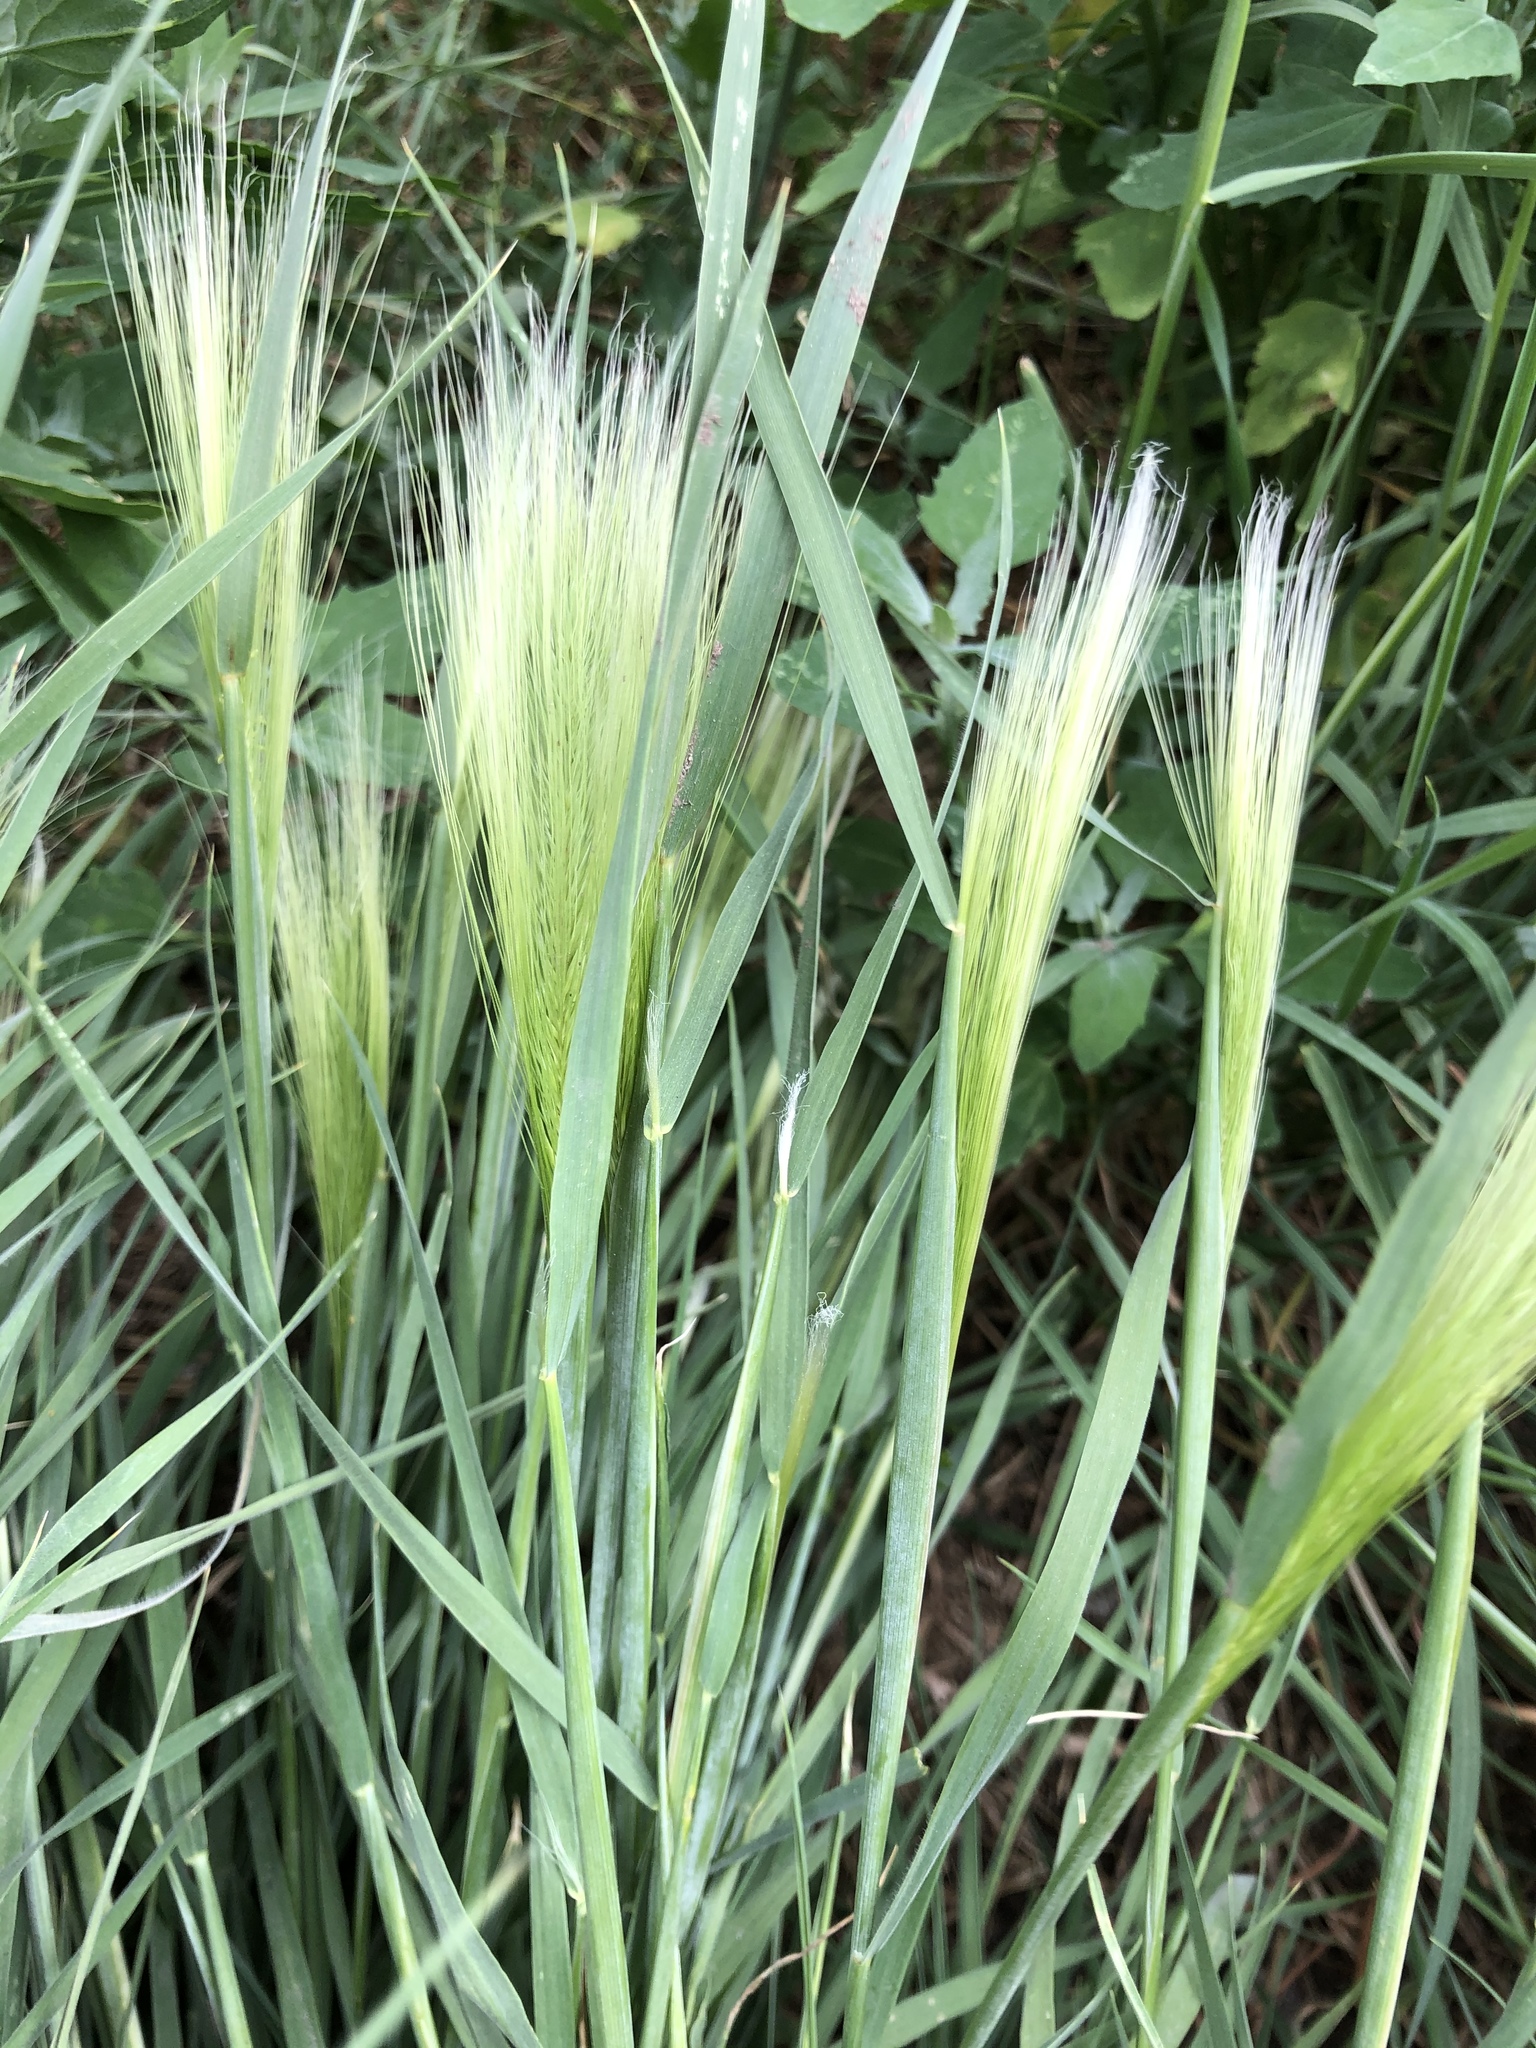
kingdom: Plantae
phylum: Tracheophyta
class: Liliopsida
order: Poales
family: Poaceae
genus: Hordeum
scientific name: Hordeum jubatum
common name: Foxtail barley
